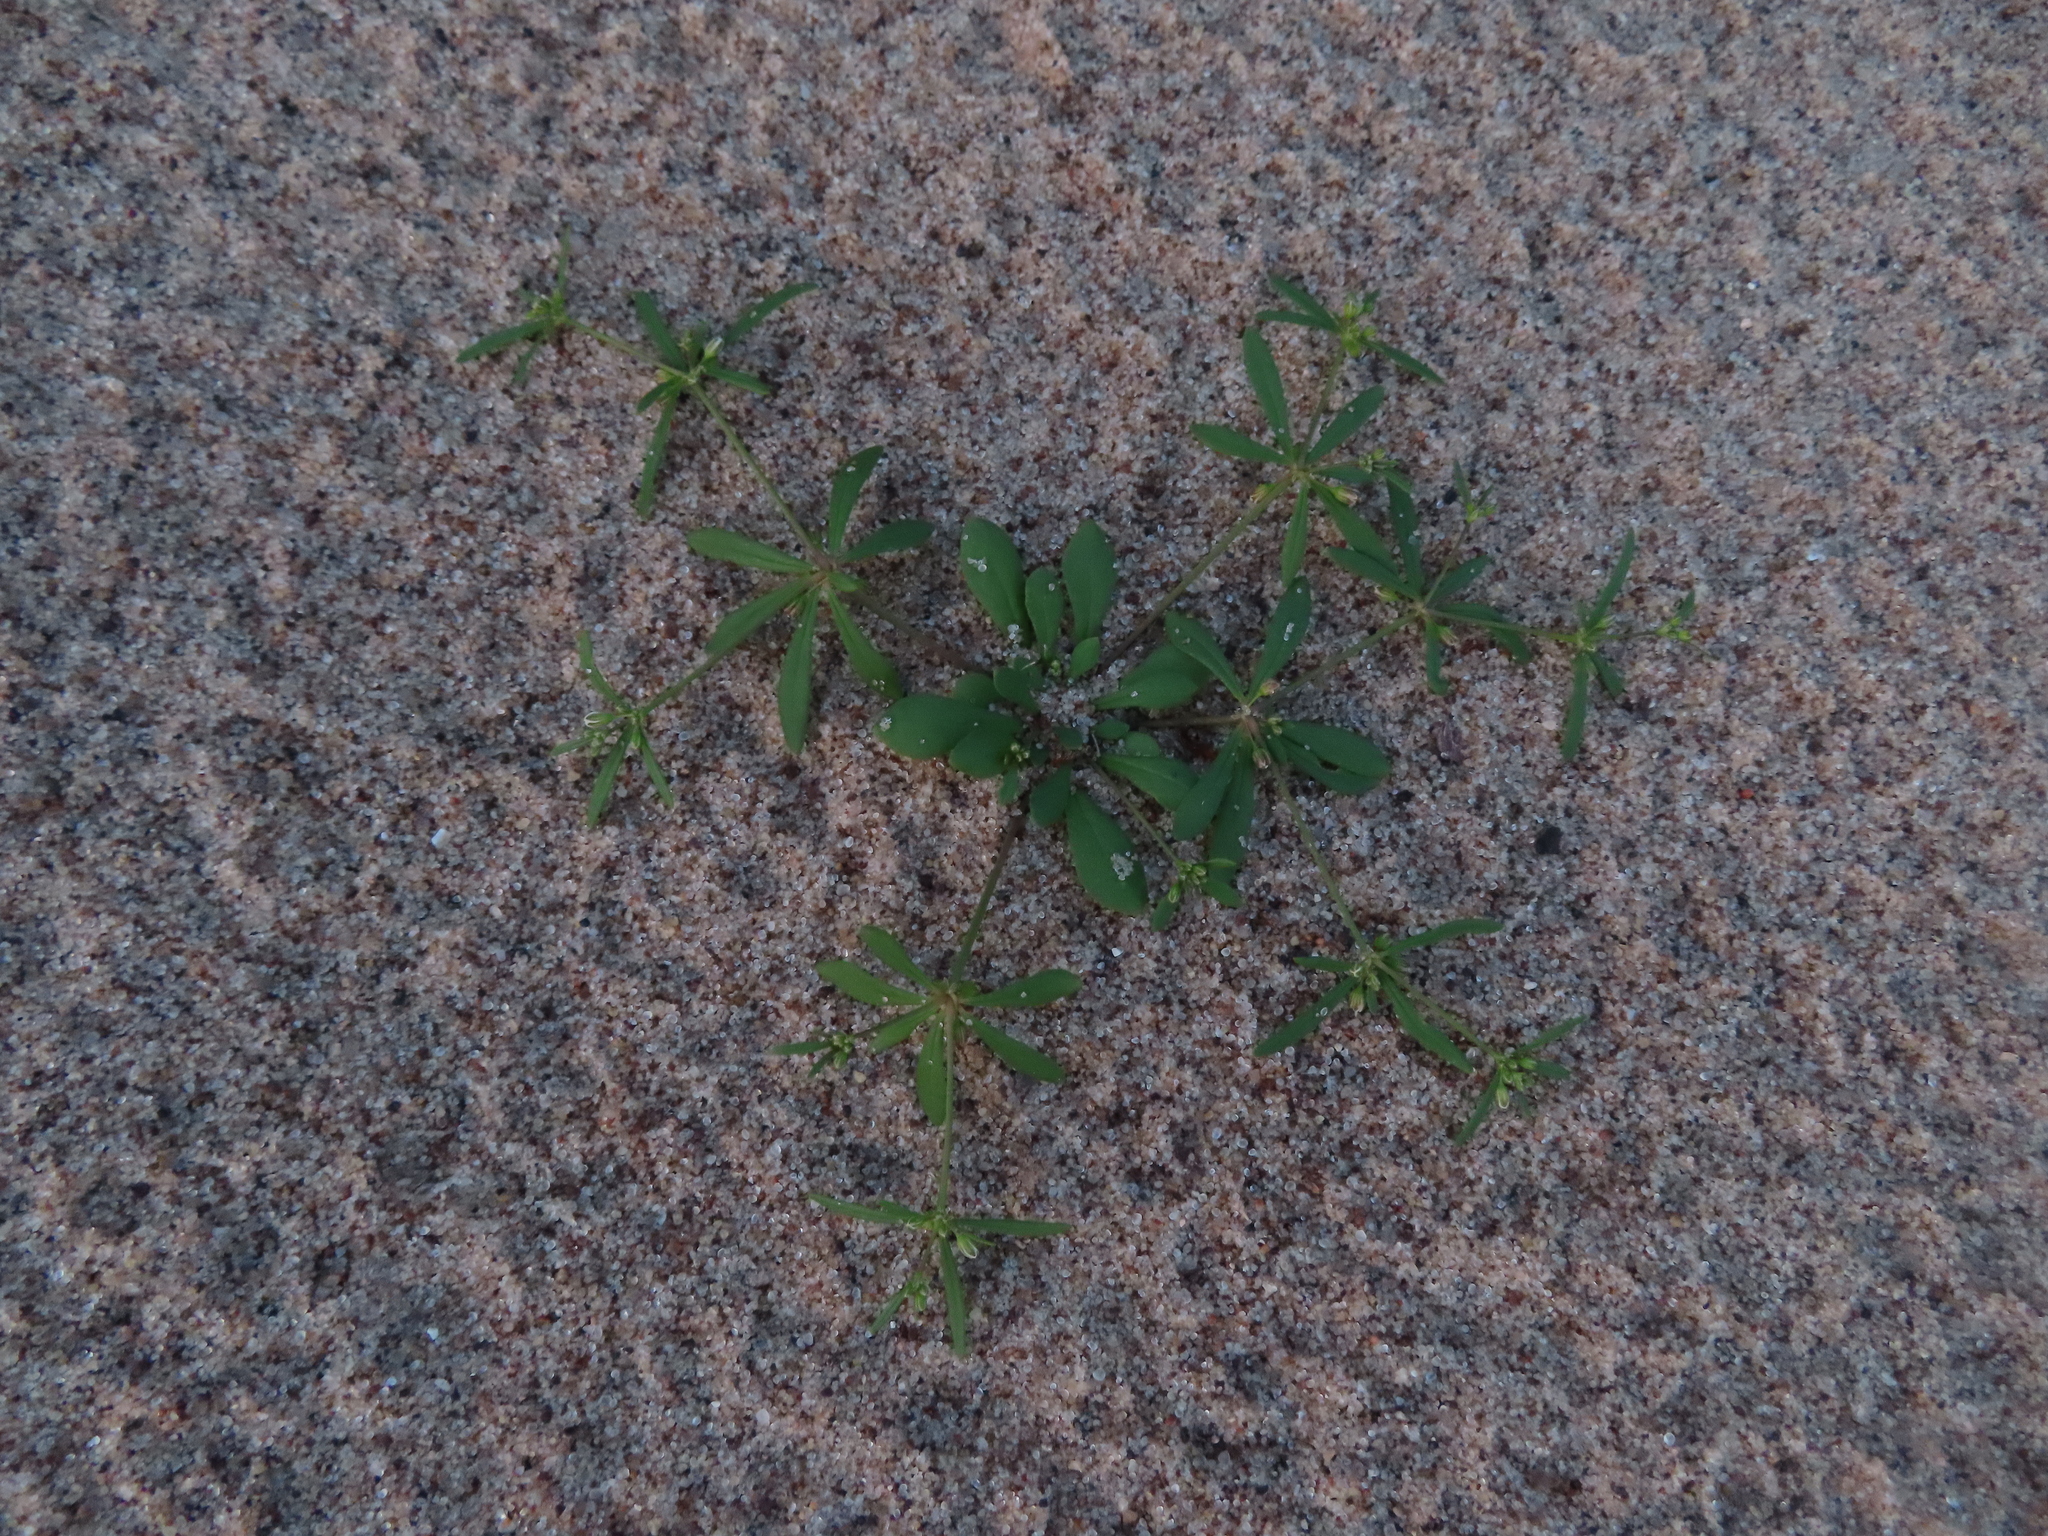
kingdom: Plantae
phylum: Tracheophyta
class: Magnoliopsida
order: Caryophyllales
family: Molluginaceae
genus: Mollugo
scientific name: Mollugo verticillata
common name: Green carpetweed
